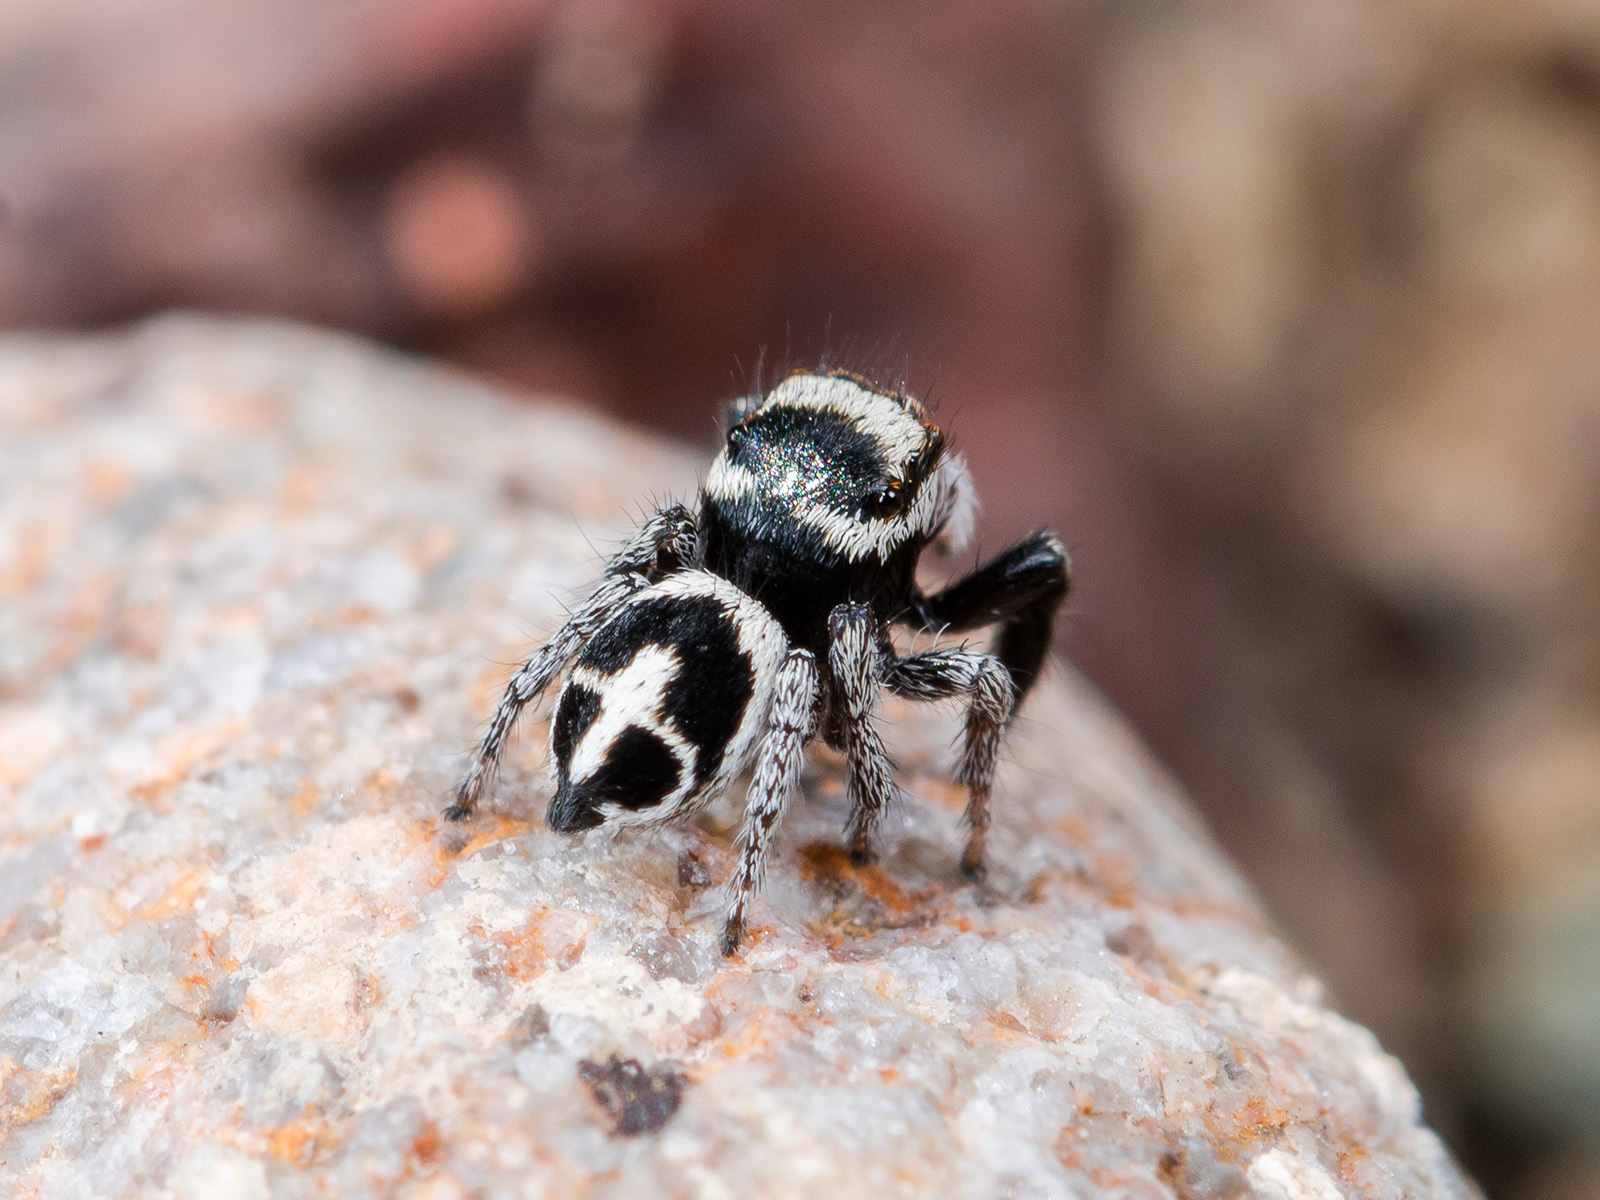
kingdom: Animalia
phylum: Arthropoda
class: Arachnida
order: Araneae
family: Salticidae
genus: Pellenes
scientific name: Pellenes geniculatus
